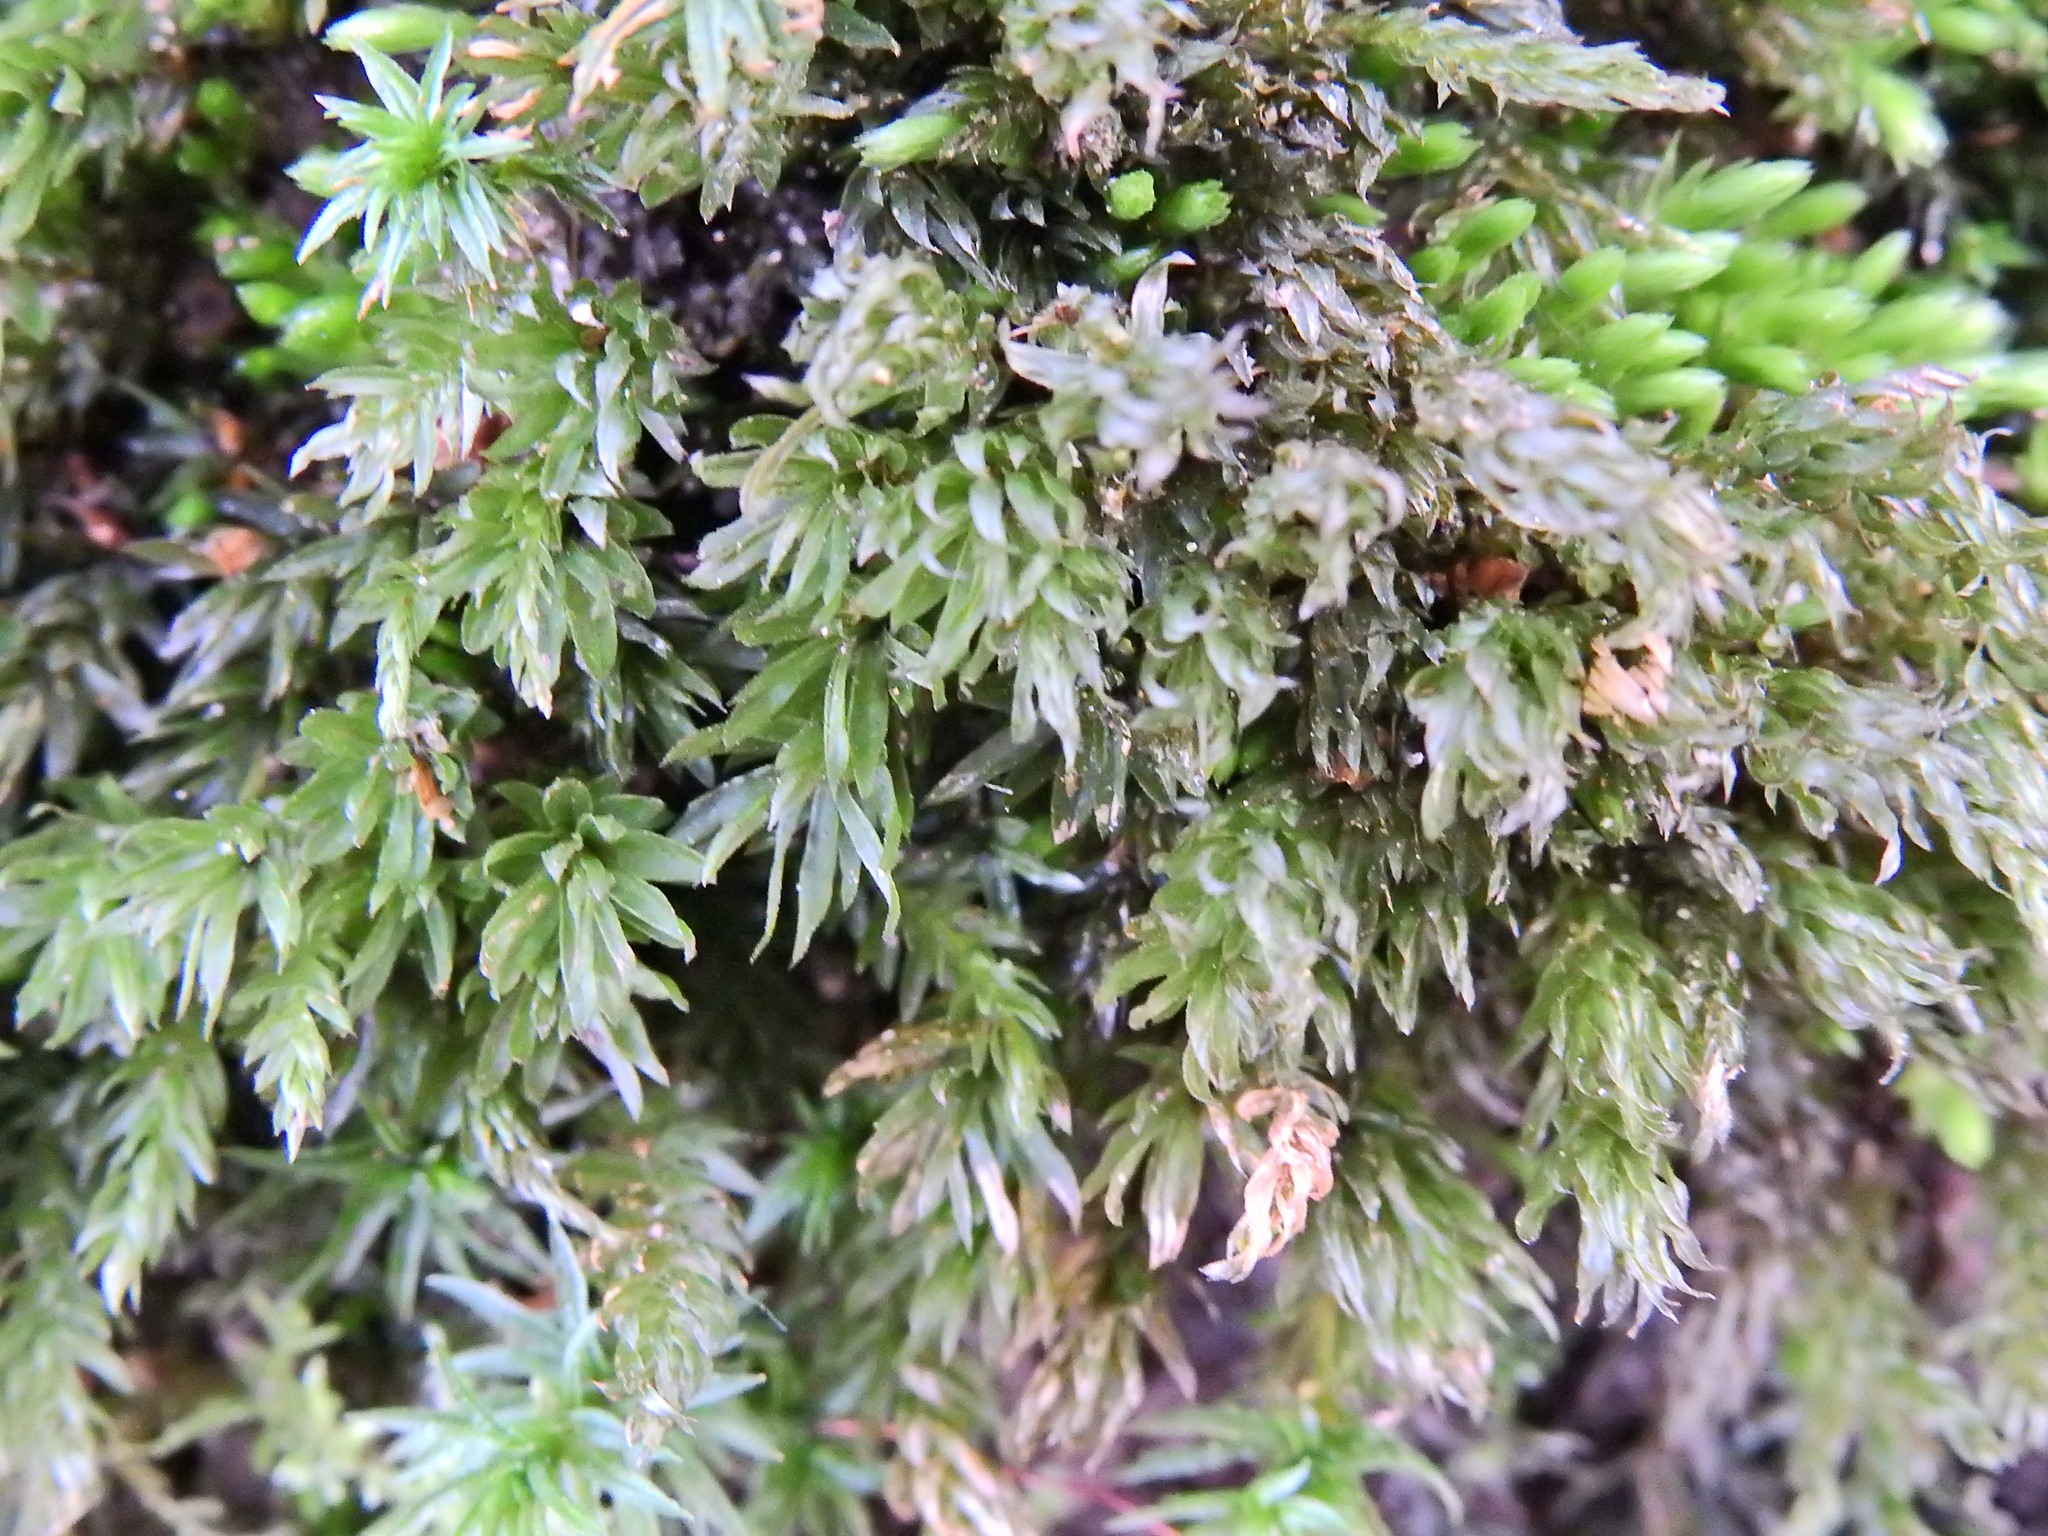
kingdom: Plantae
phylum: Bryophyta
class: Bryopsida
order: Bryales
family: Mniaceae
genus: Mnium
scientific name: Mnium hornum
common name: Swan's-neck leafy moss
